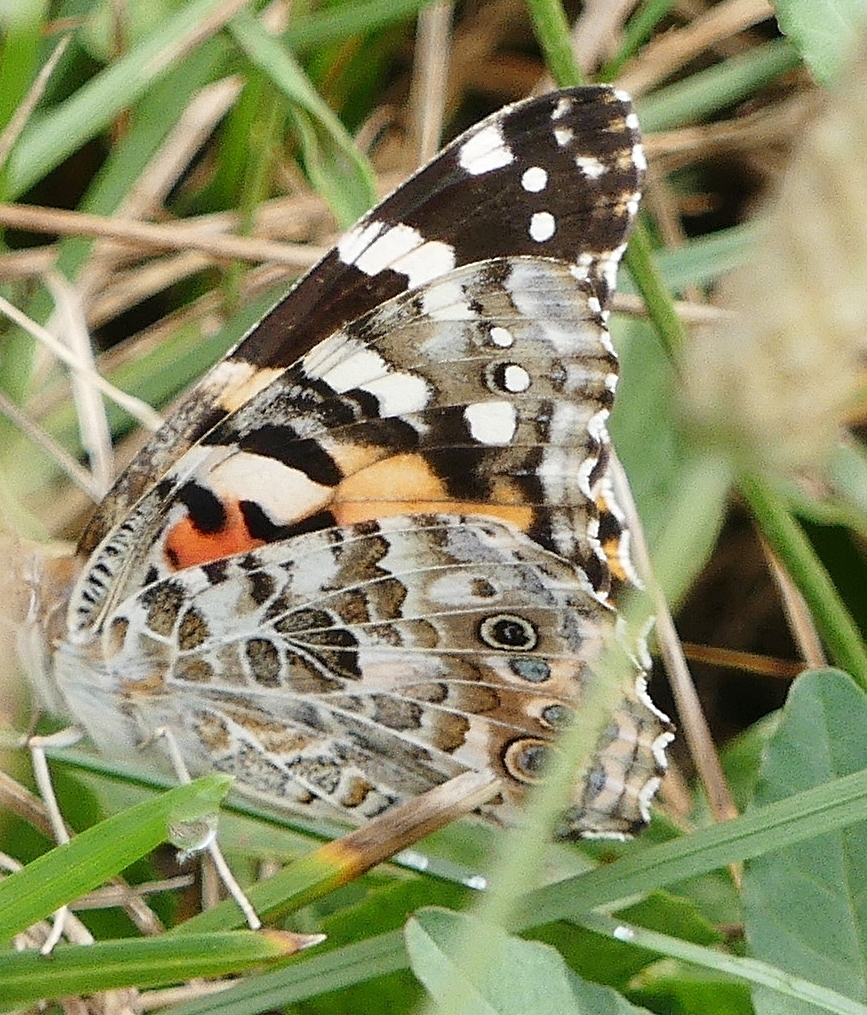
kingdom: Animalia
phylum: Arthropoda
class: Insecta
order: Lepidoptera
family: Nymphalidae
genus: Vanessa
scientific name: Vanessa cardui
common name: Painted lady
